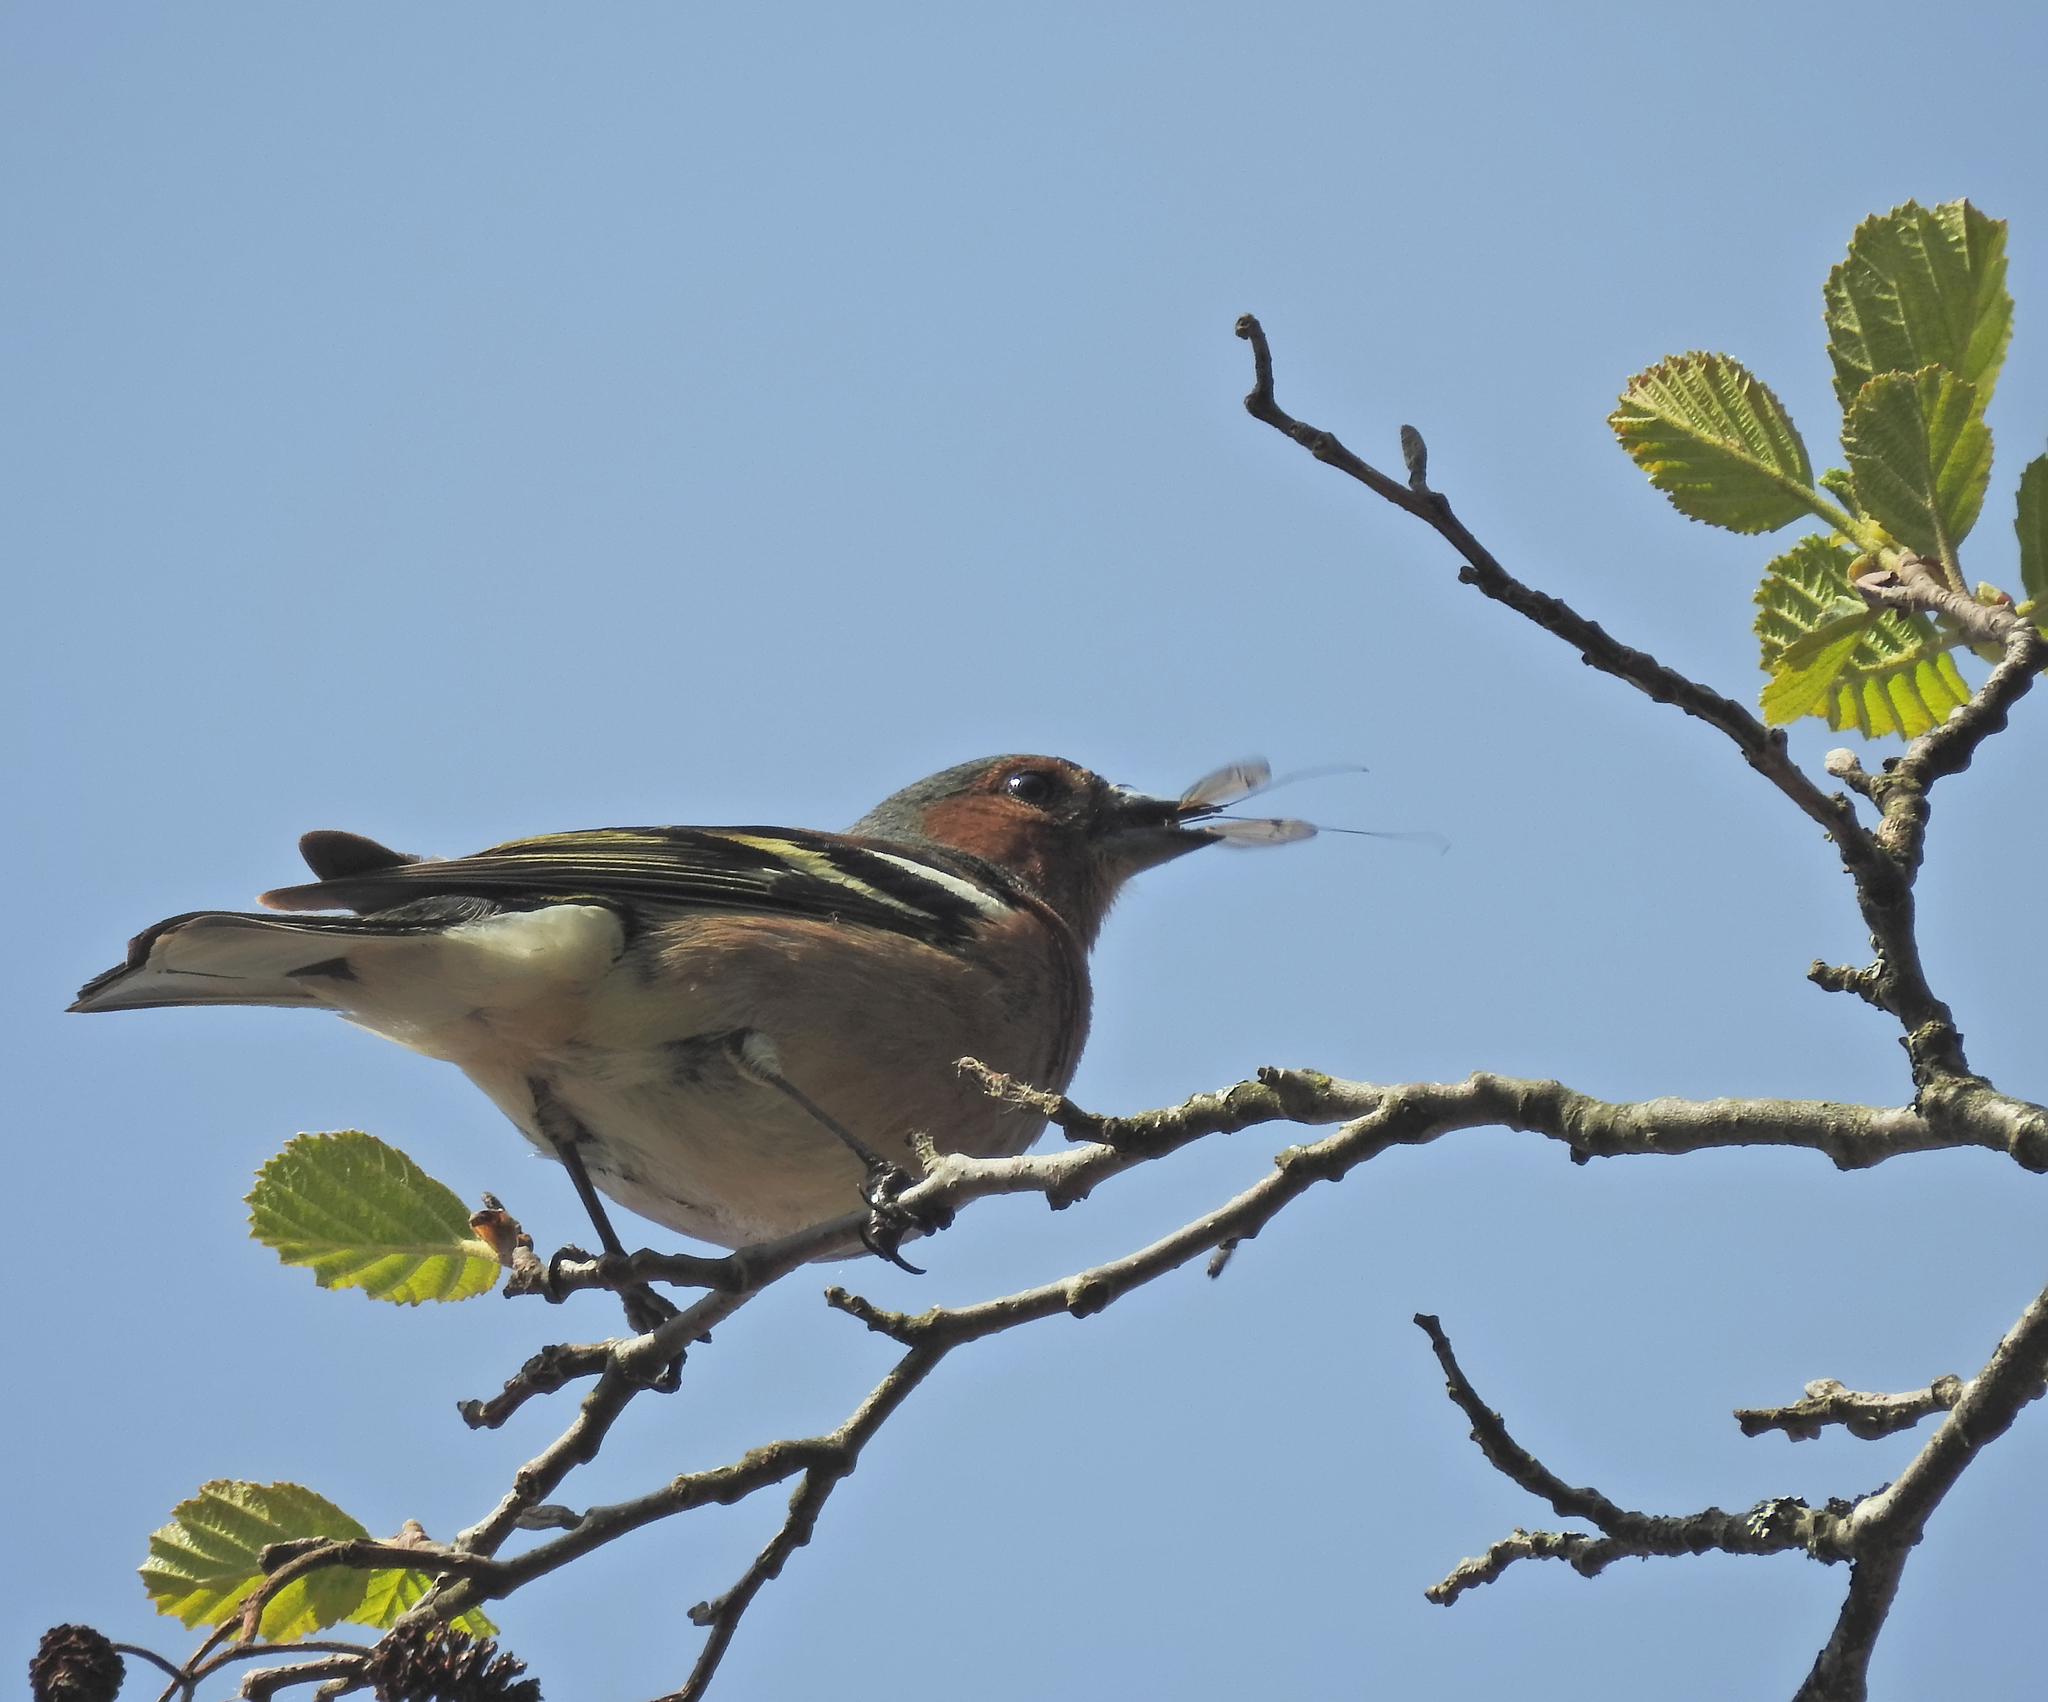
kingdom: Animalia
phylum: Chordata
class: Aves
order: Passeriformes
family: Fringillidae
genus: Fringilla
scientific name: Fringilla coelebs
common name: Common chaffinch
